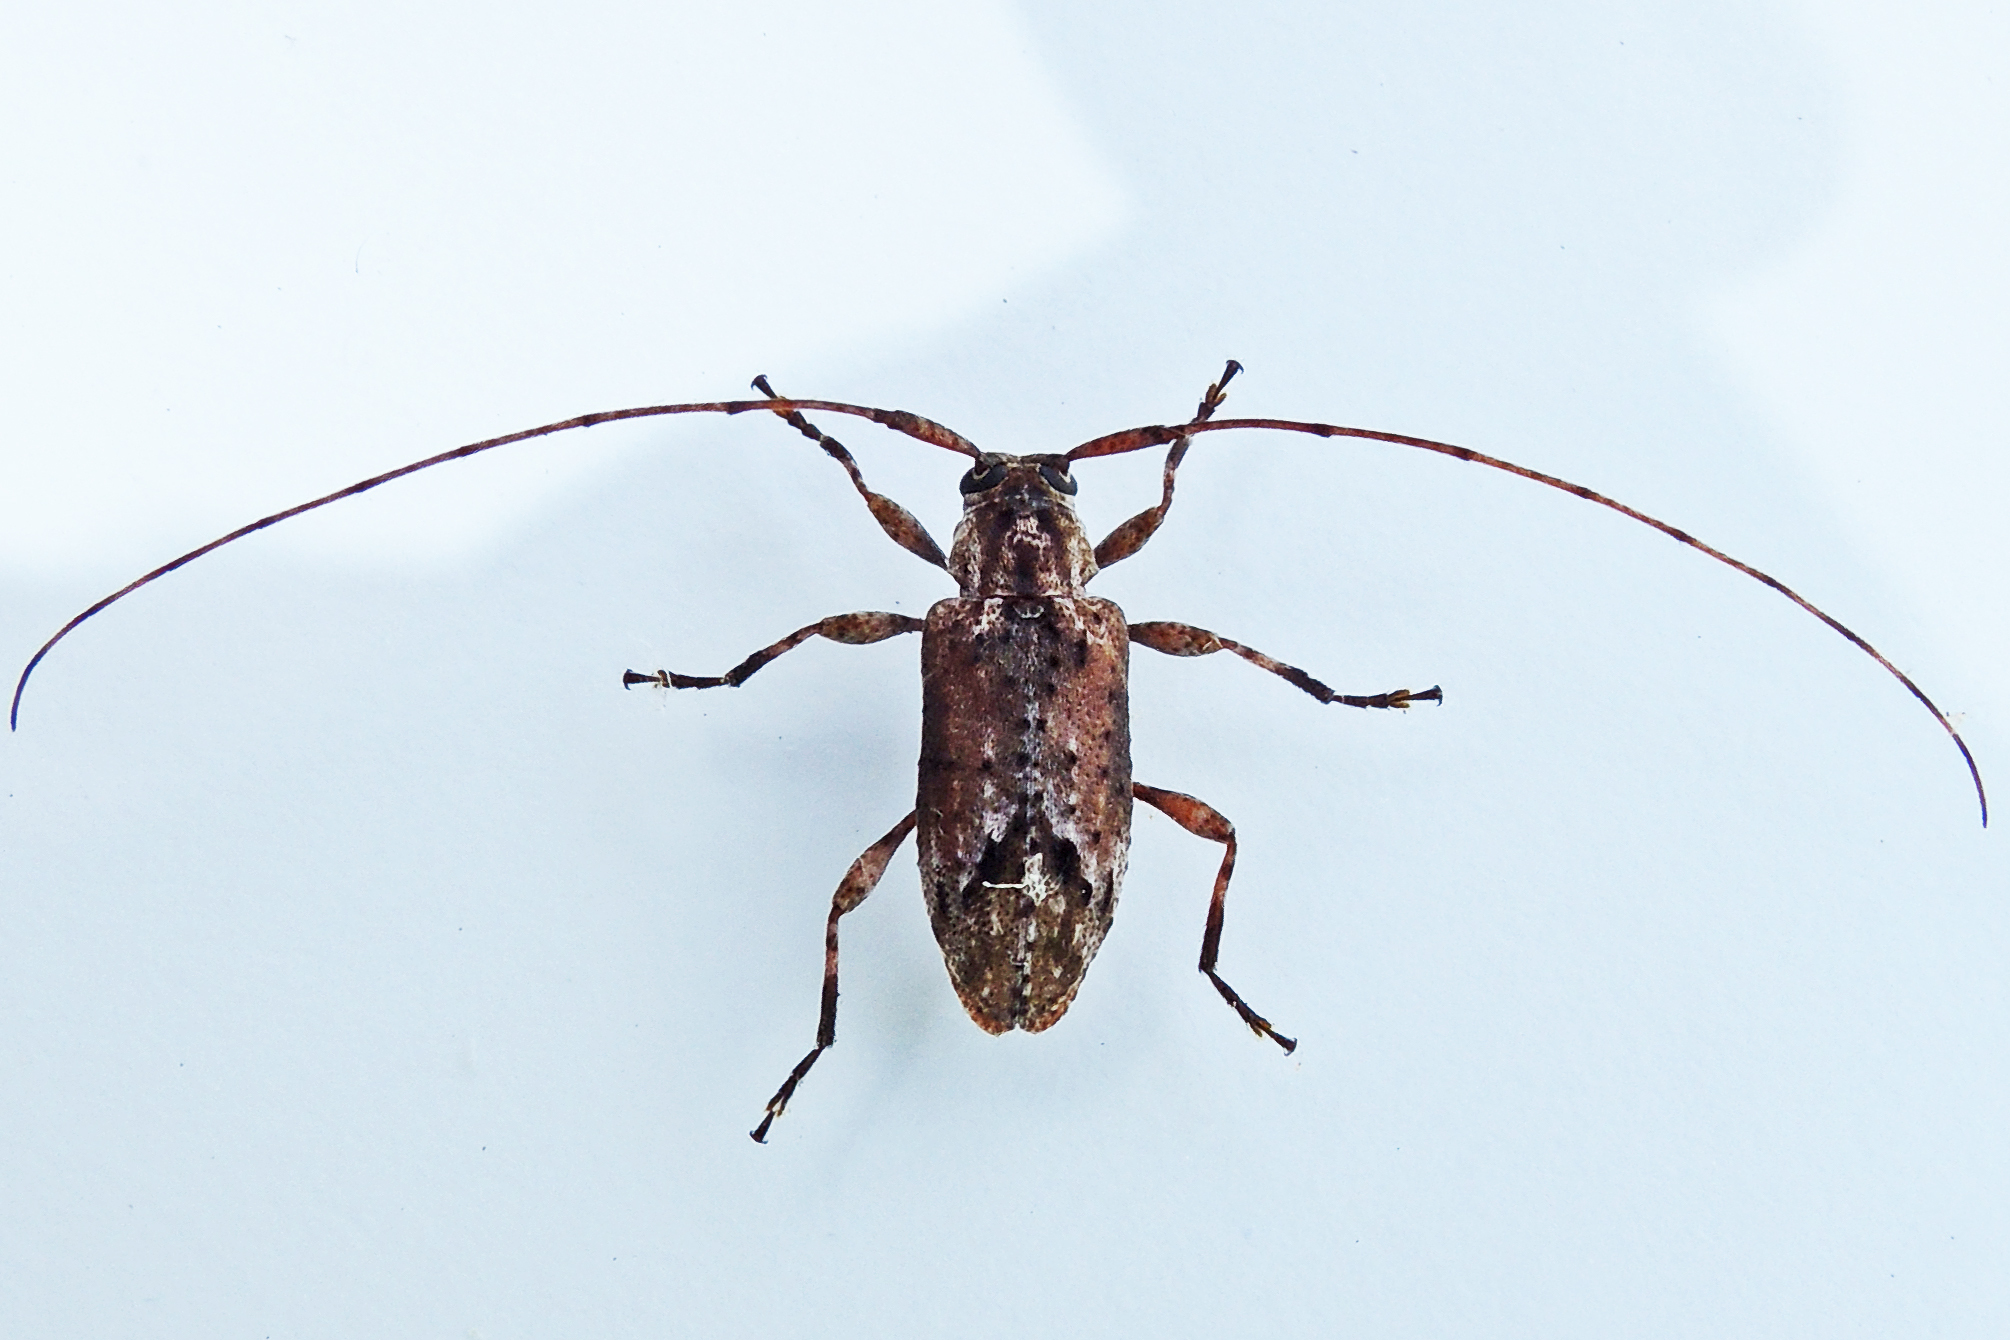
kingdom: Animalia
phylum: Arthropoda
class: Insecta
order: Coleoptera
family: Cerambycidae
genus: Sternidius
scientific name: Sternidius alpha
